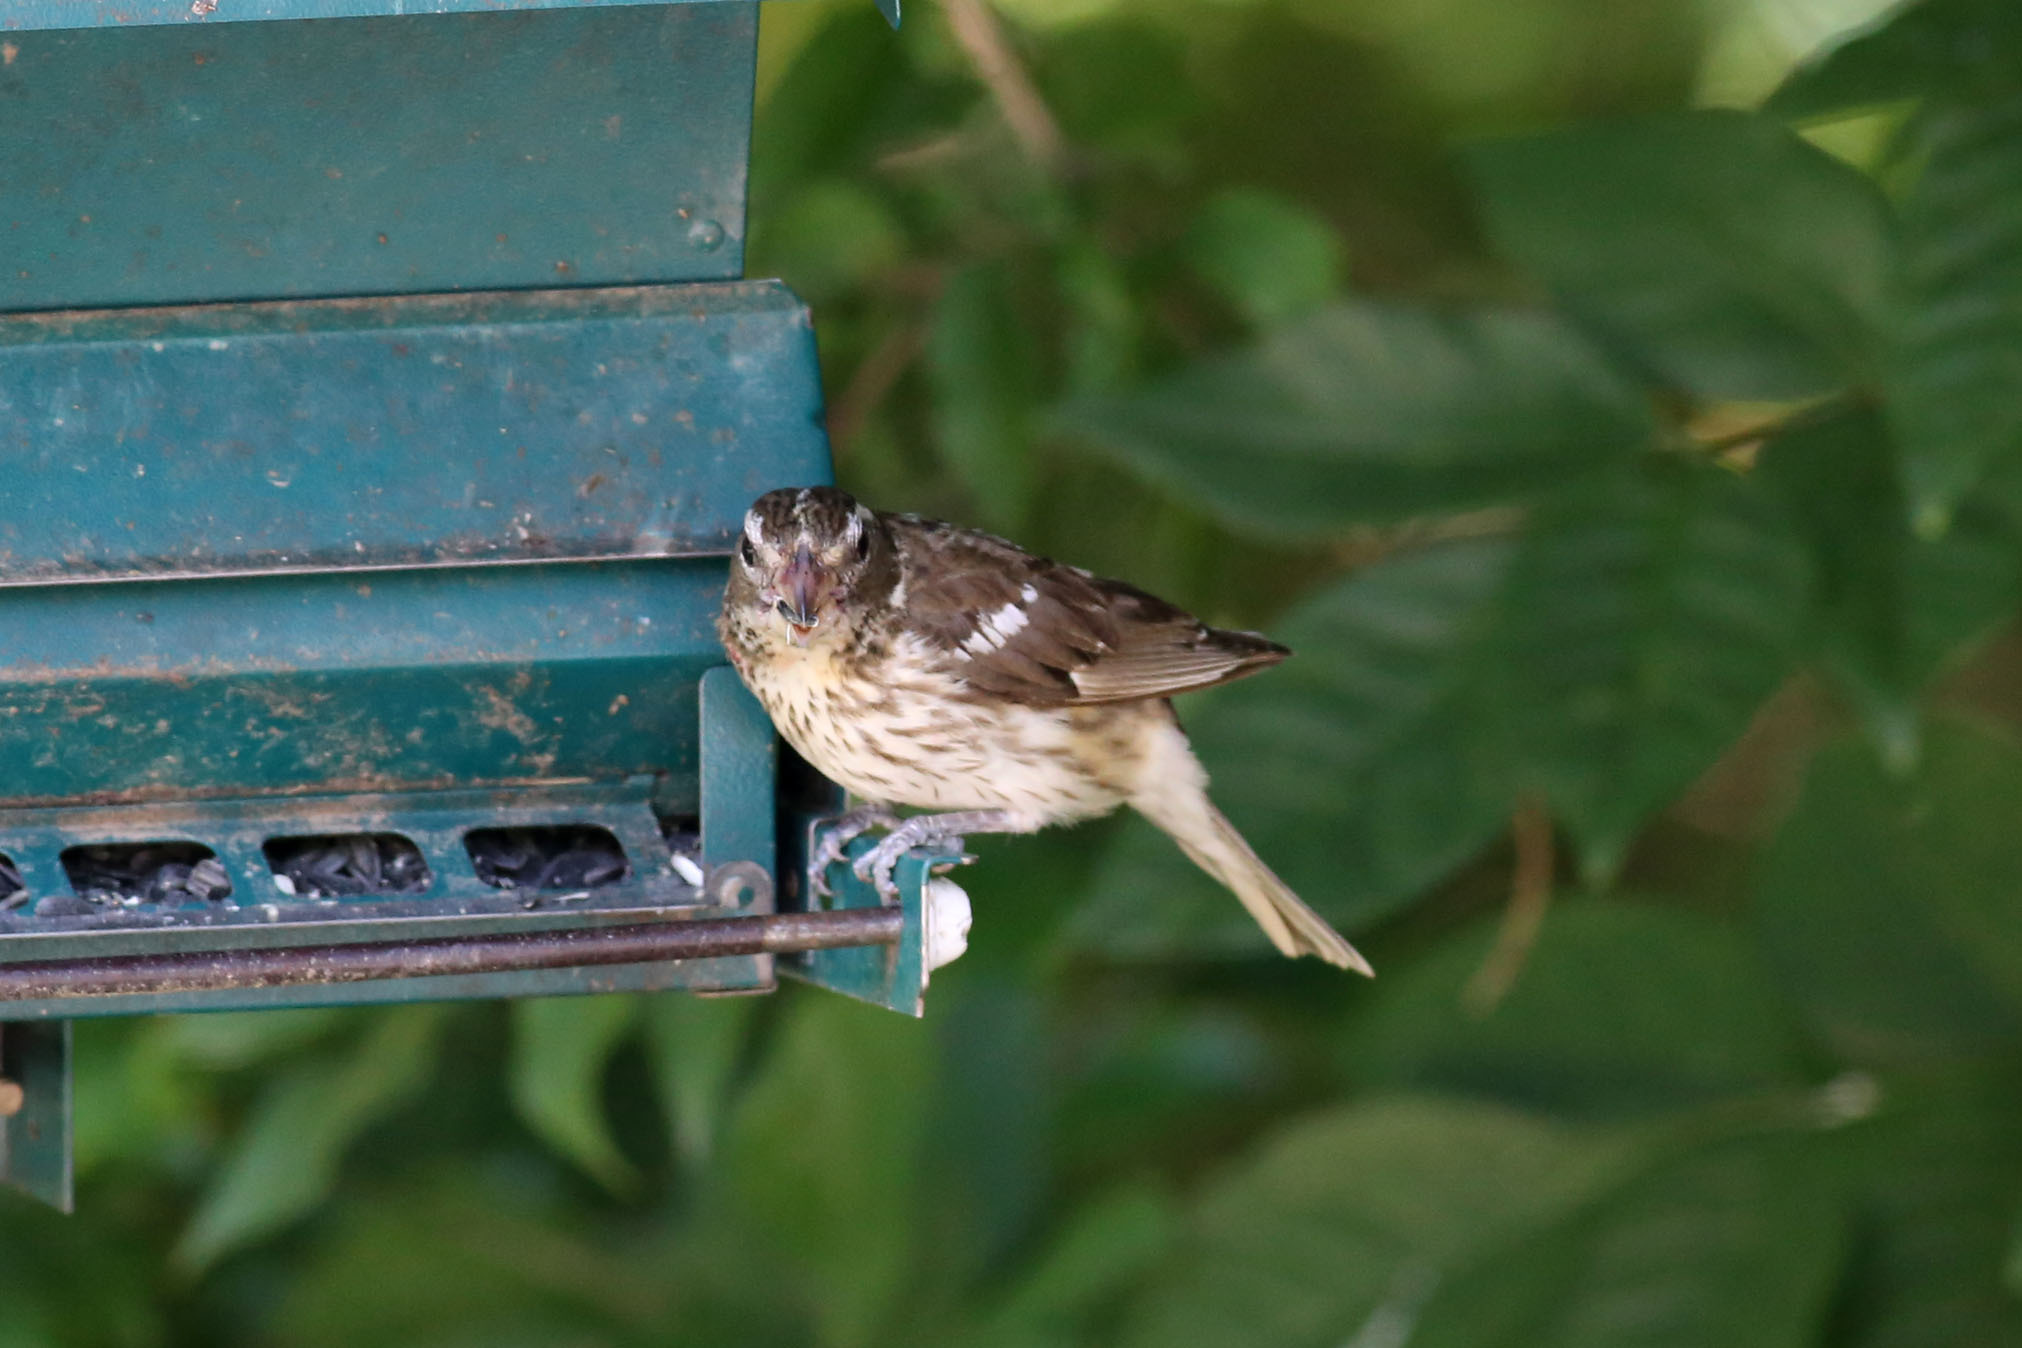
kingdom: Animalia
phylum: Chordata
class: Aves
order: Passeriformes
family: Cardinalidae
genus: Pheucticus
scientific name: Pheucticus ludovicianus
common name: Rose-breasted grosbeak
